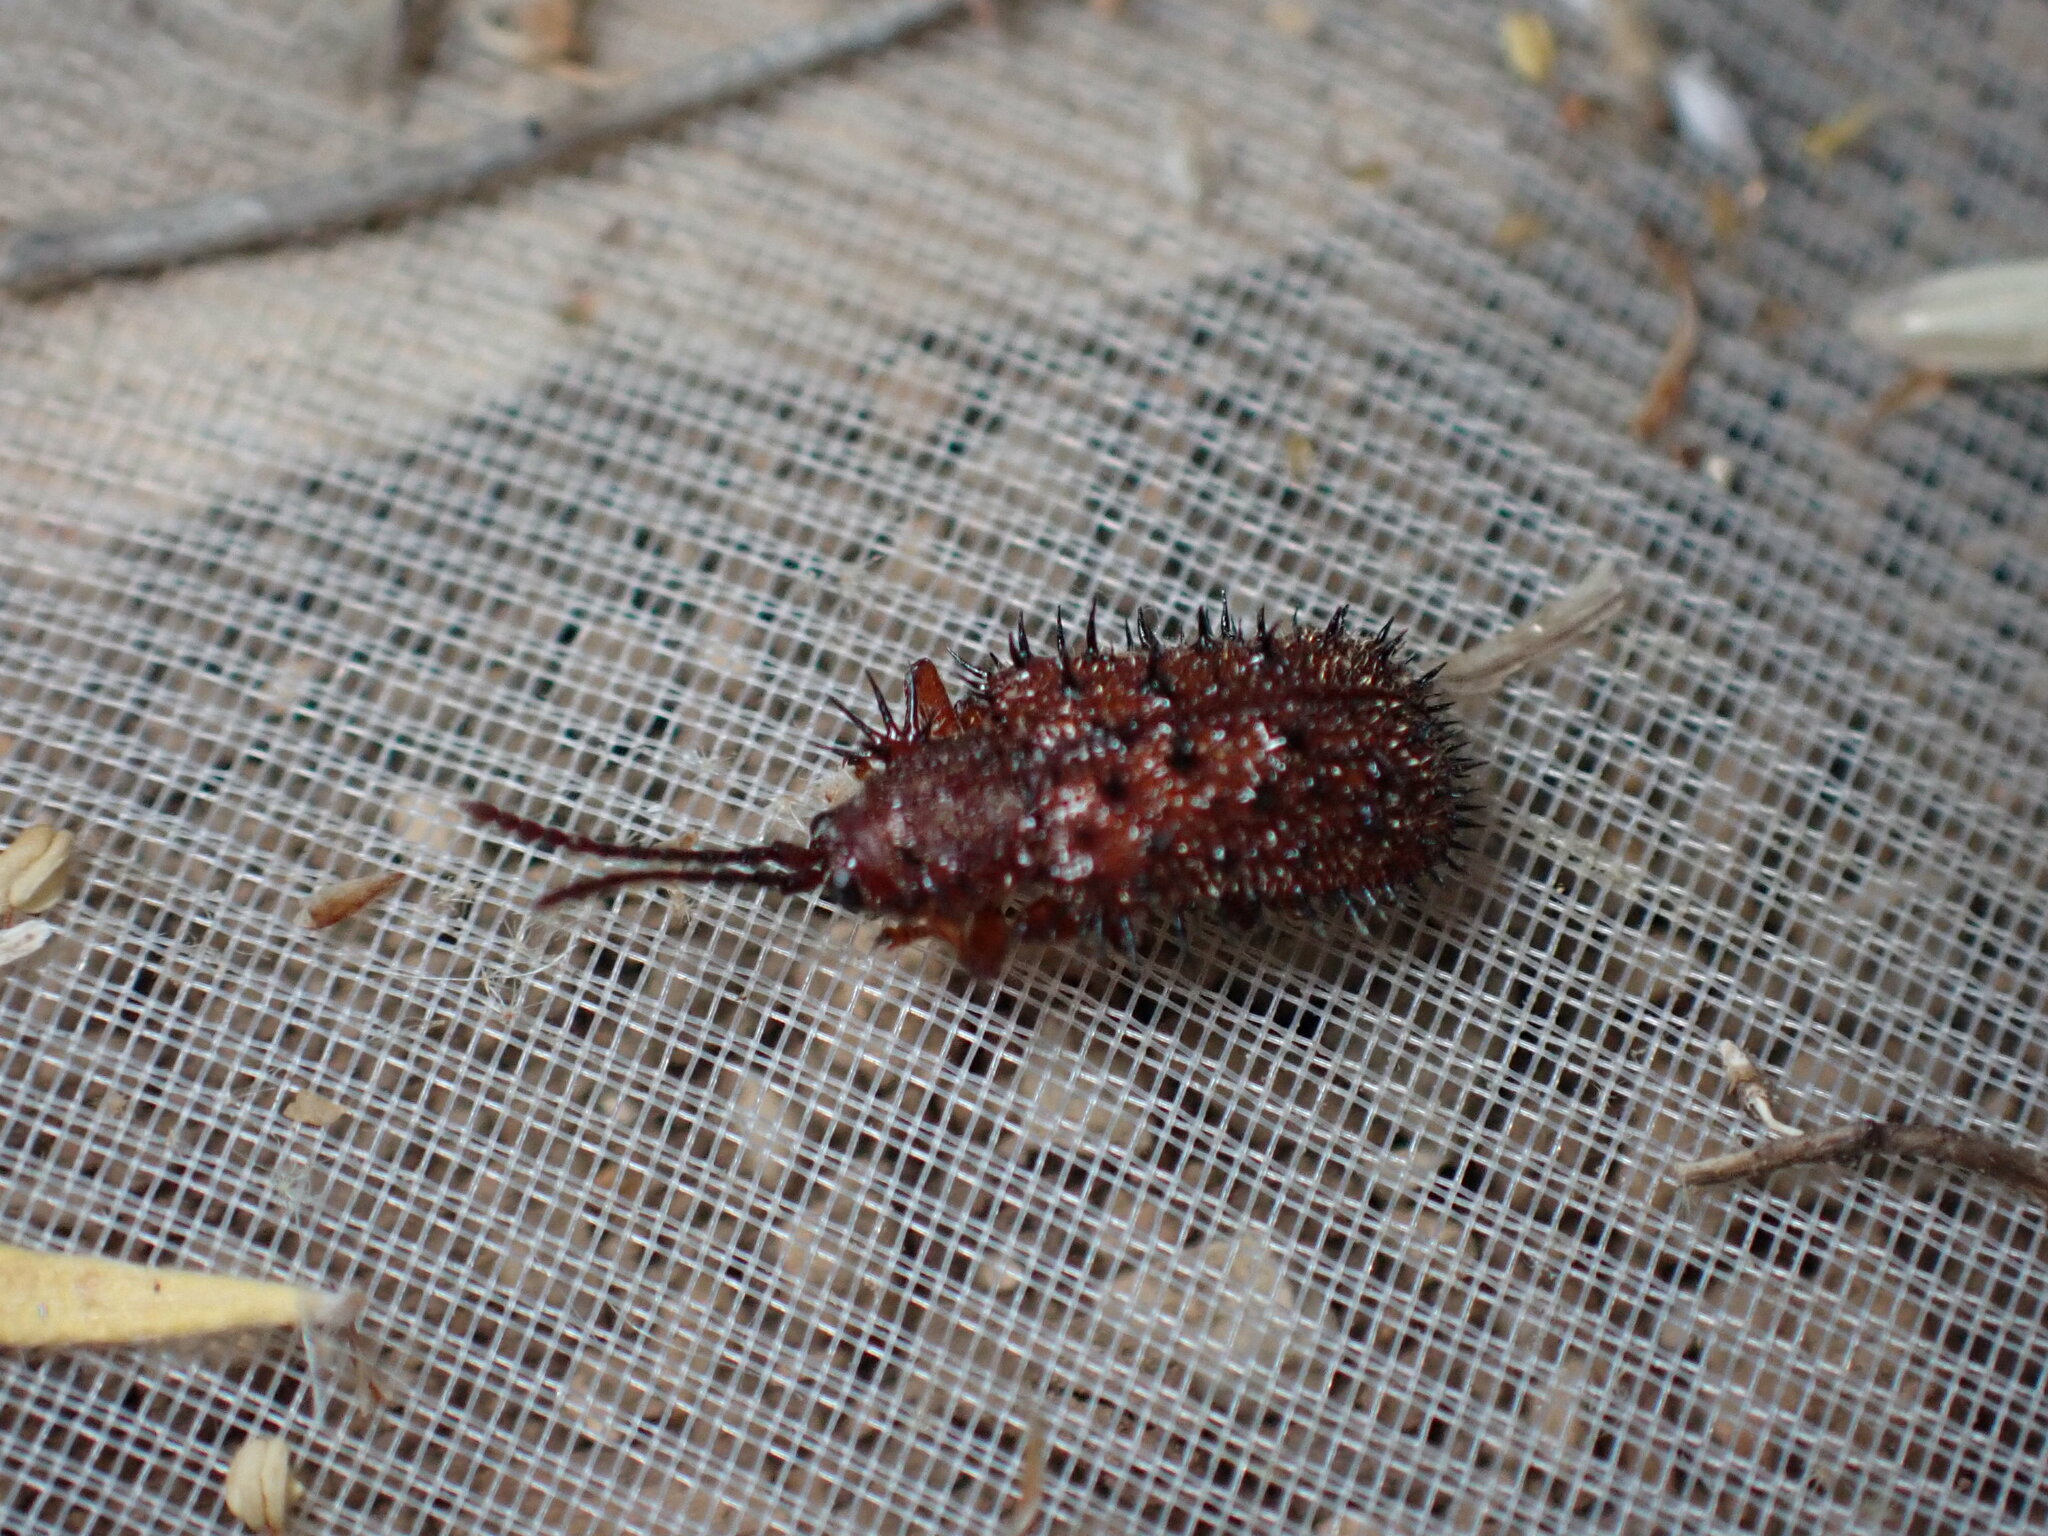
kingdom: Animalia
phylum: Arthropoda
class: Insecta
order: Coleoptera
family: Chrysomelidae
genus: Dicladispa
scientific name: Dicladispa testacea
